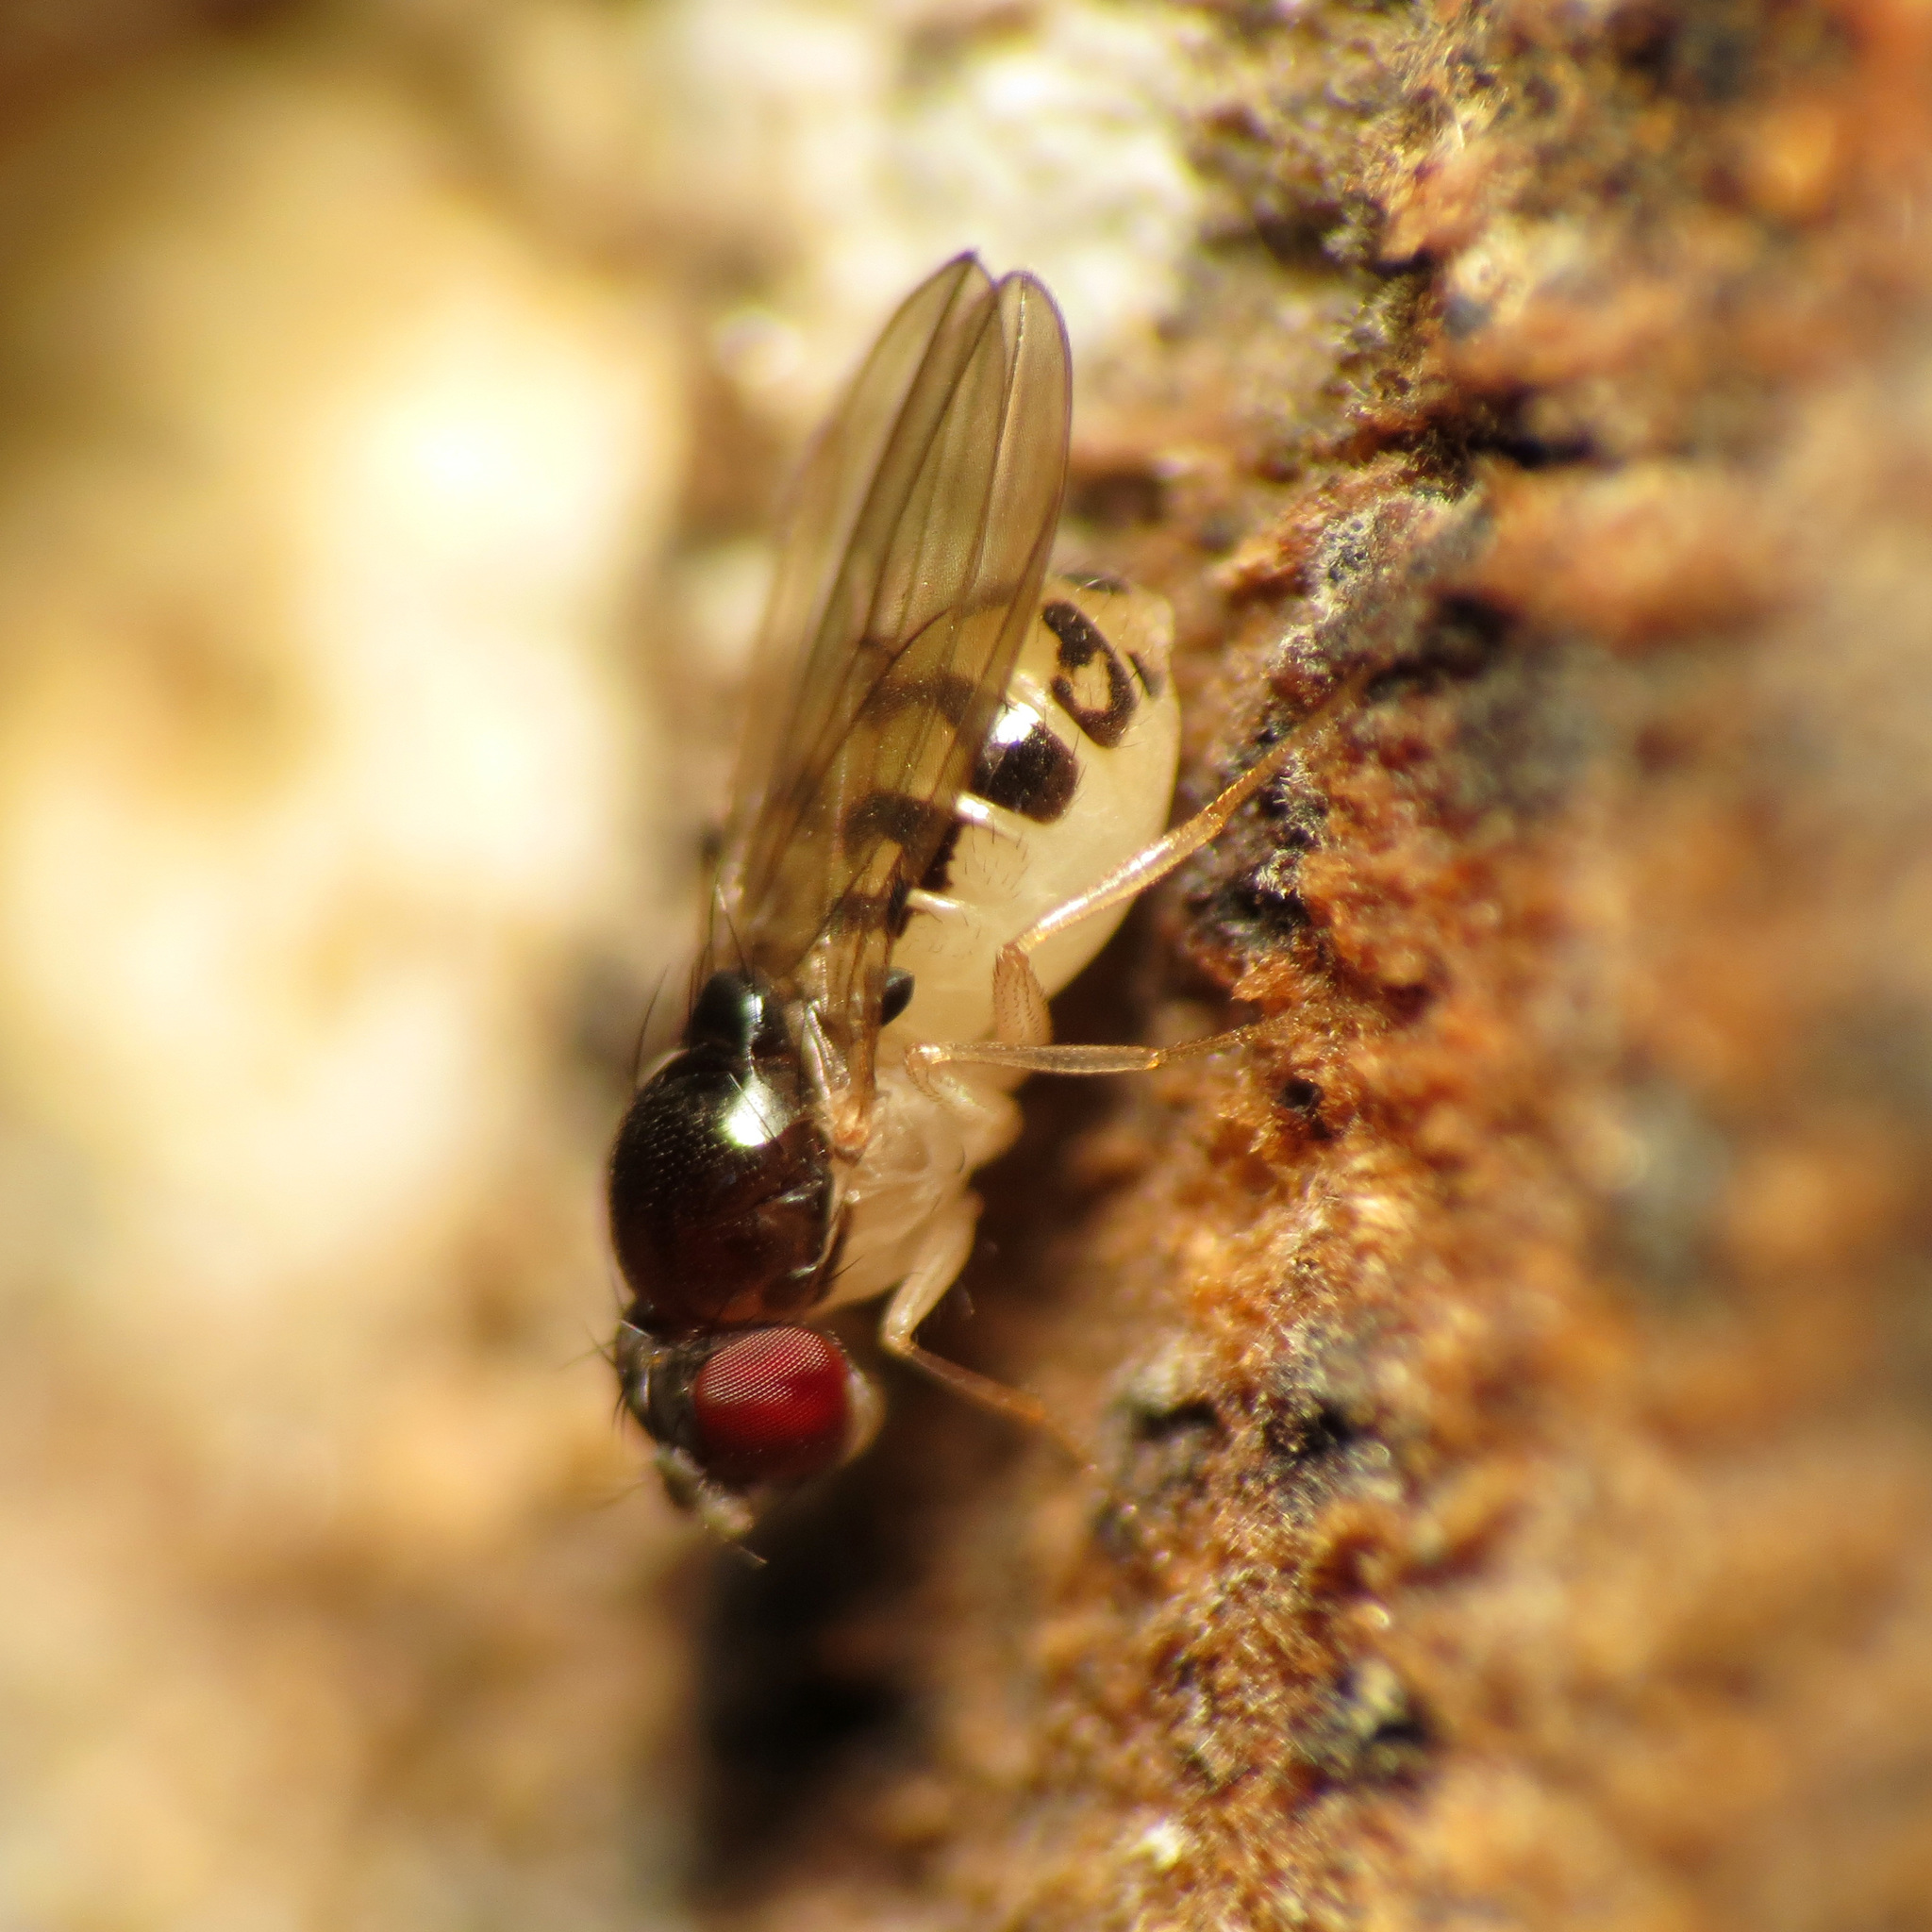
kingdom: Animalia
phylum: Arthropoda
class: Insecta
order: Diptera
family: Drosophilidae
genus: Mycodrosophila
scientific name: Mycodrosophila claytonae
